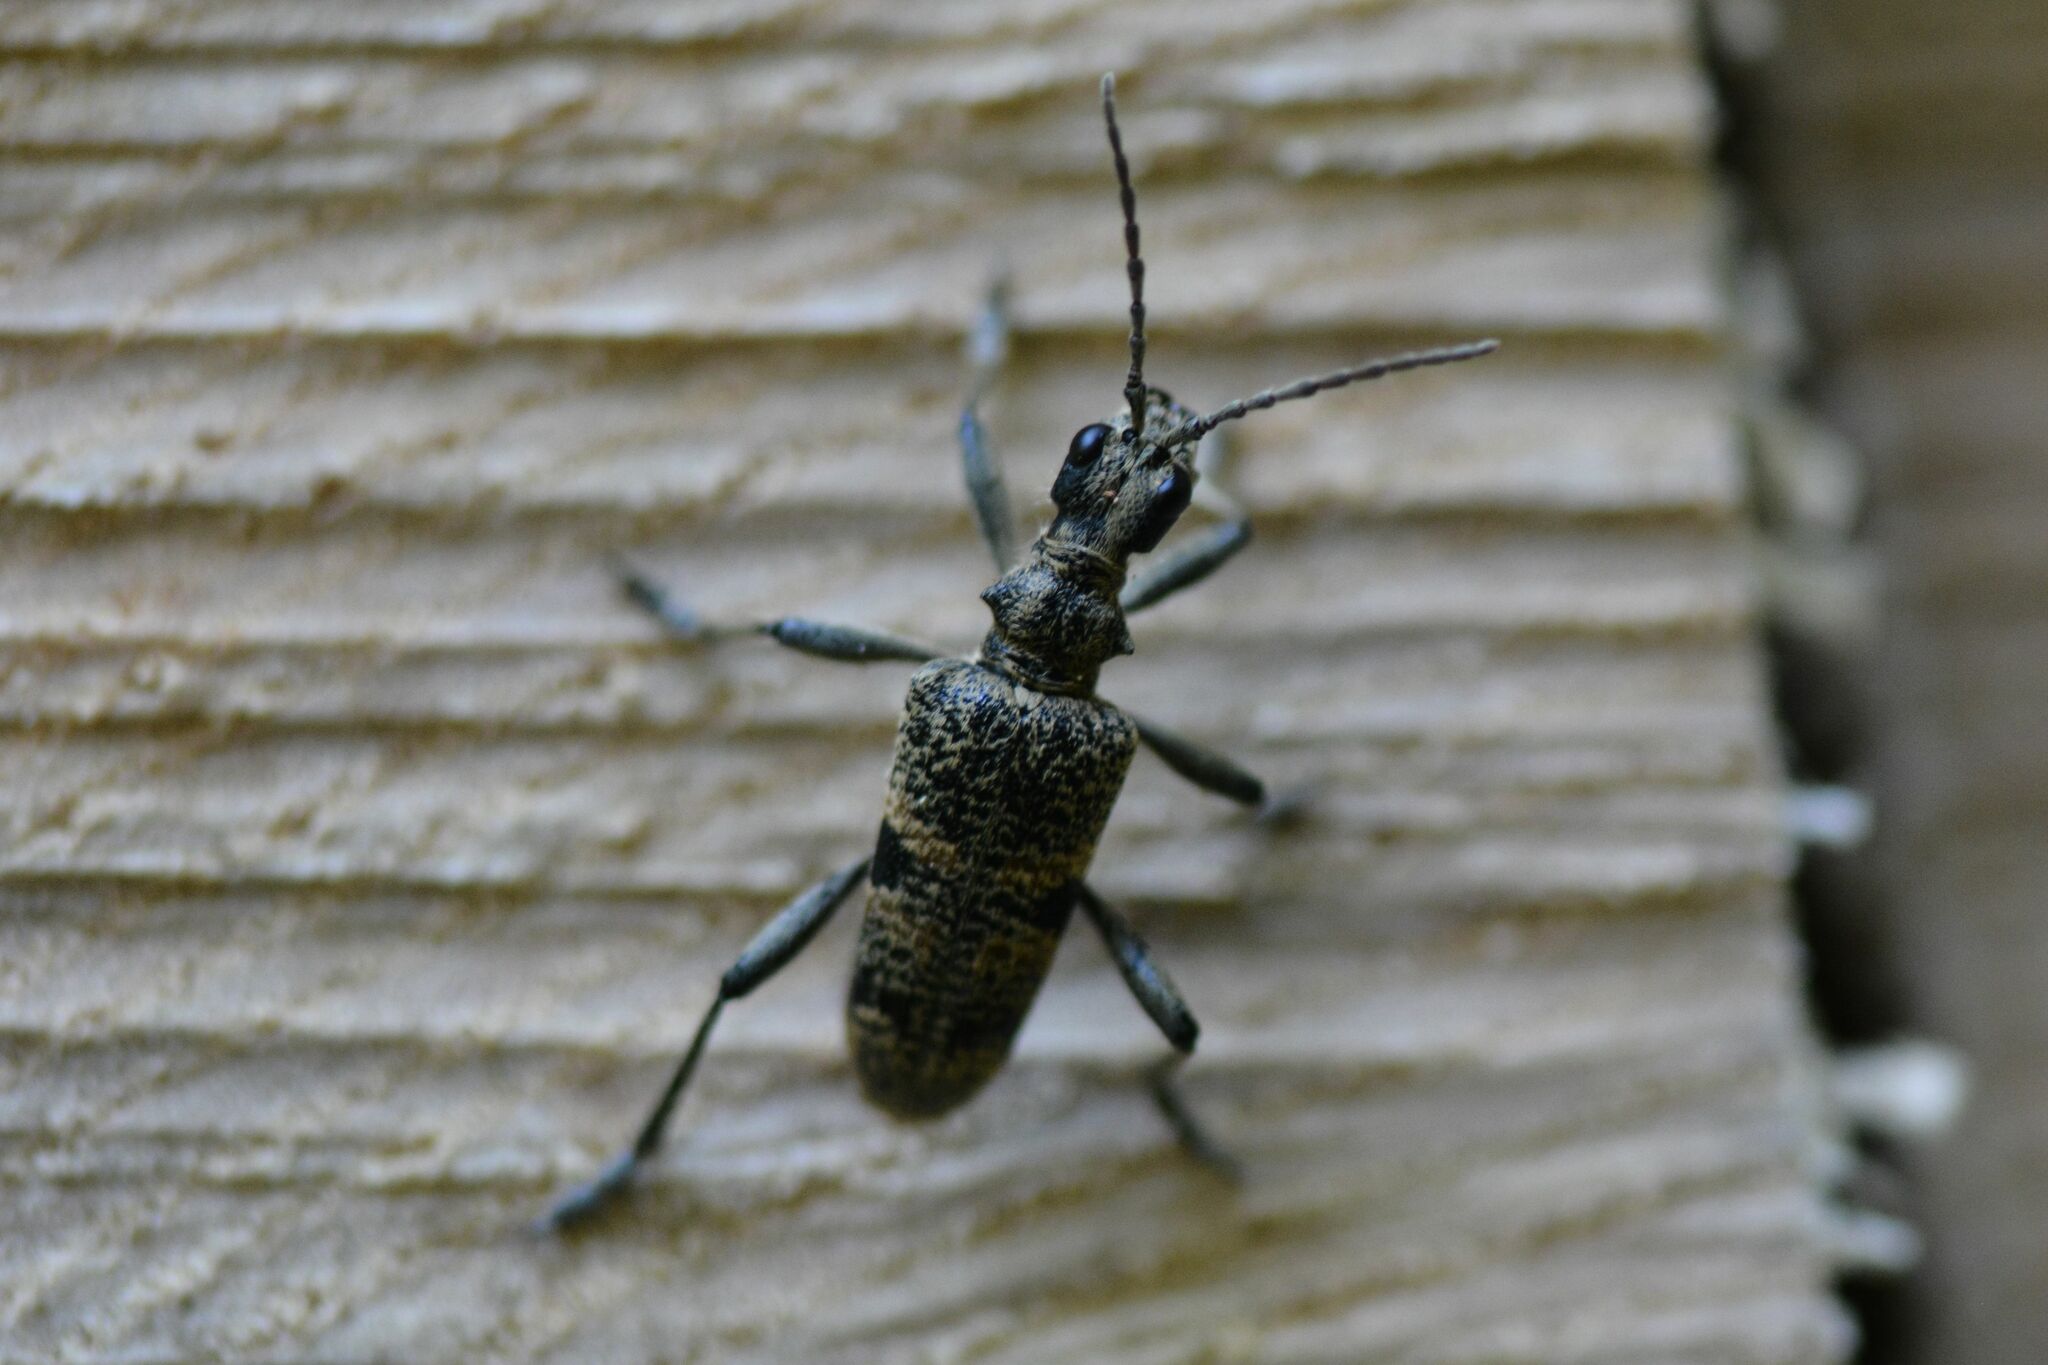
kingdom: Animalia
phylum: Arthropoda
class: Insecta
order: Coleoptera
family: Cerambycidae
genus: Rhagium
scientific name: Rhagium mordax
